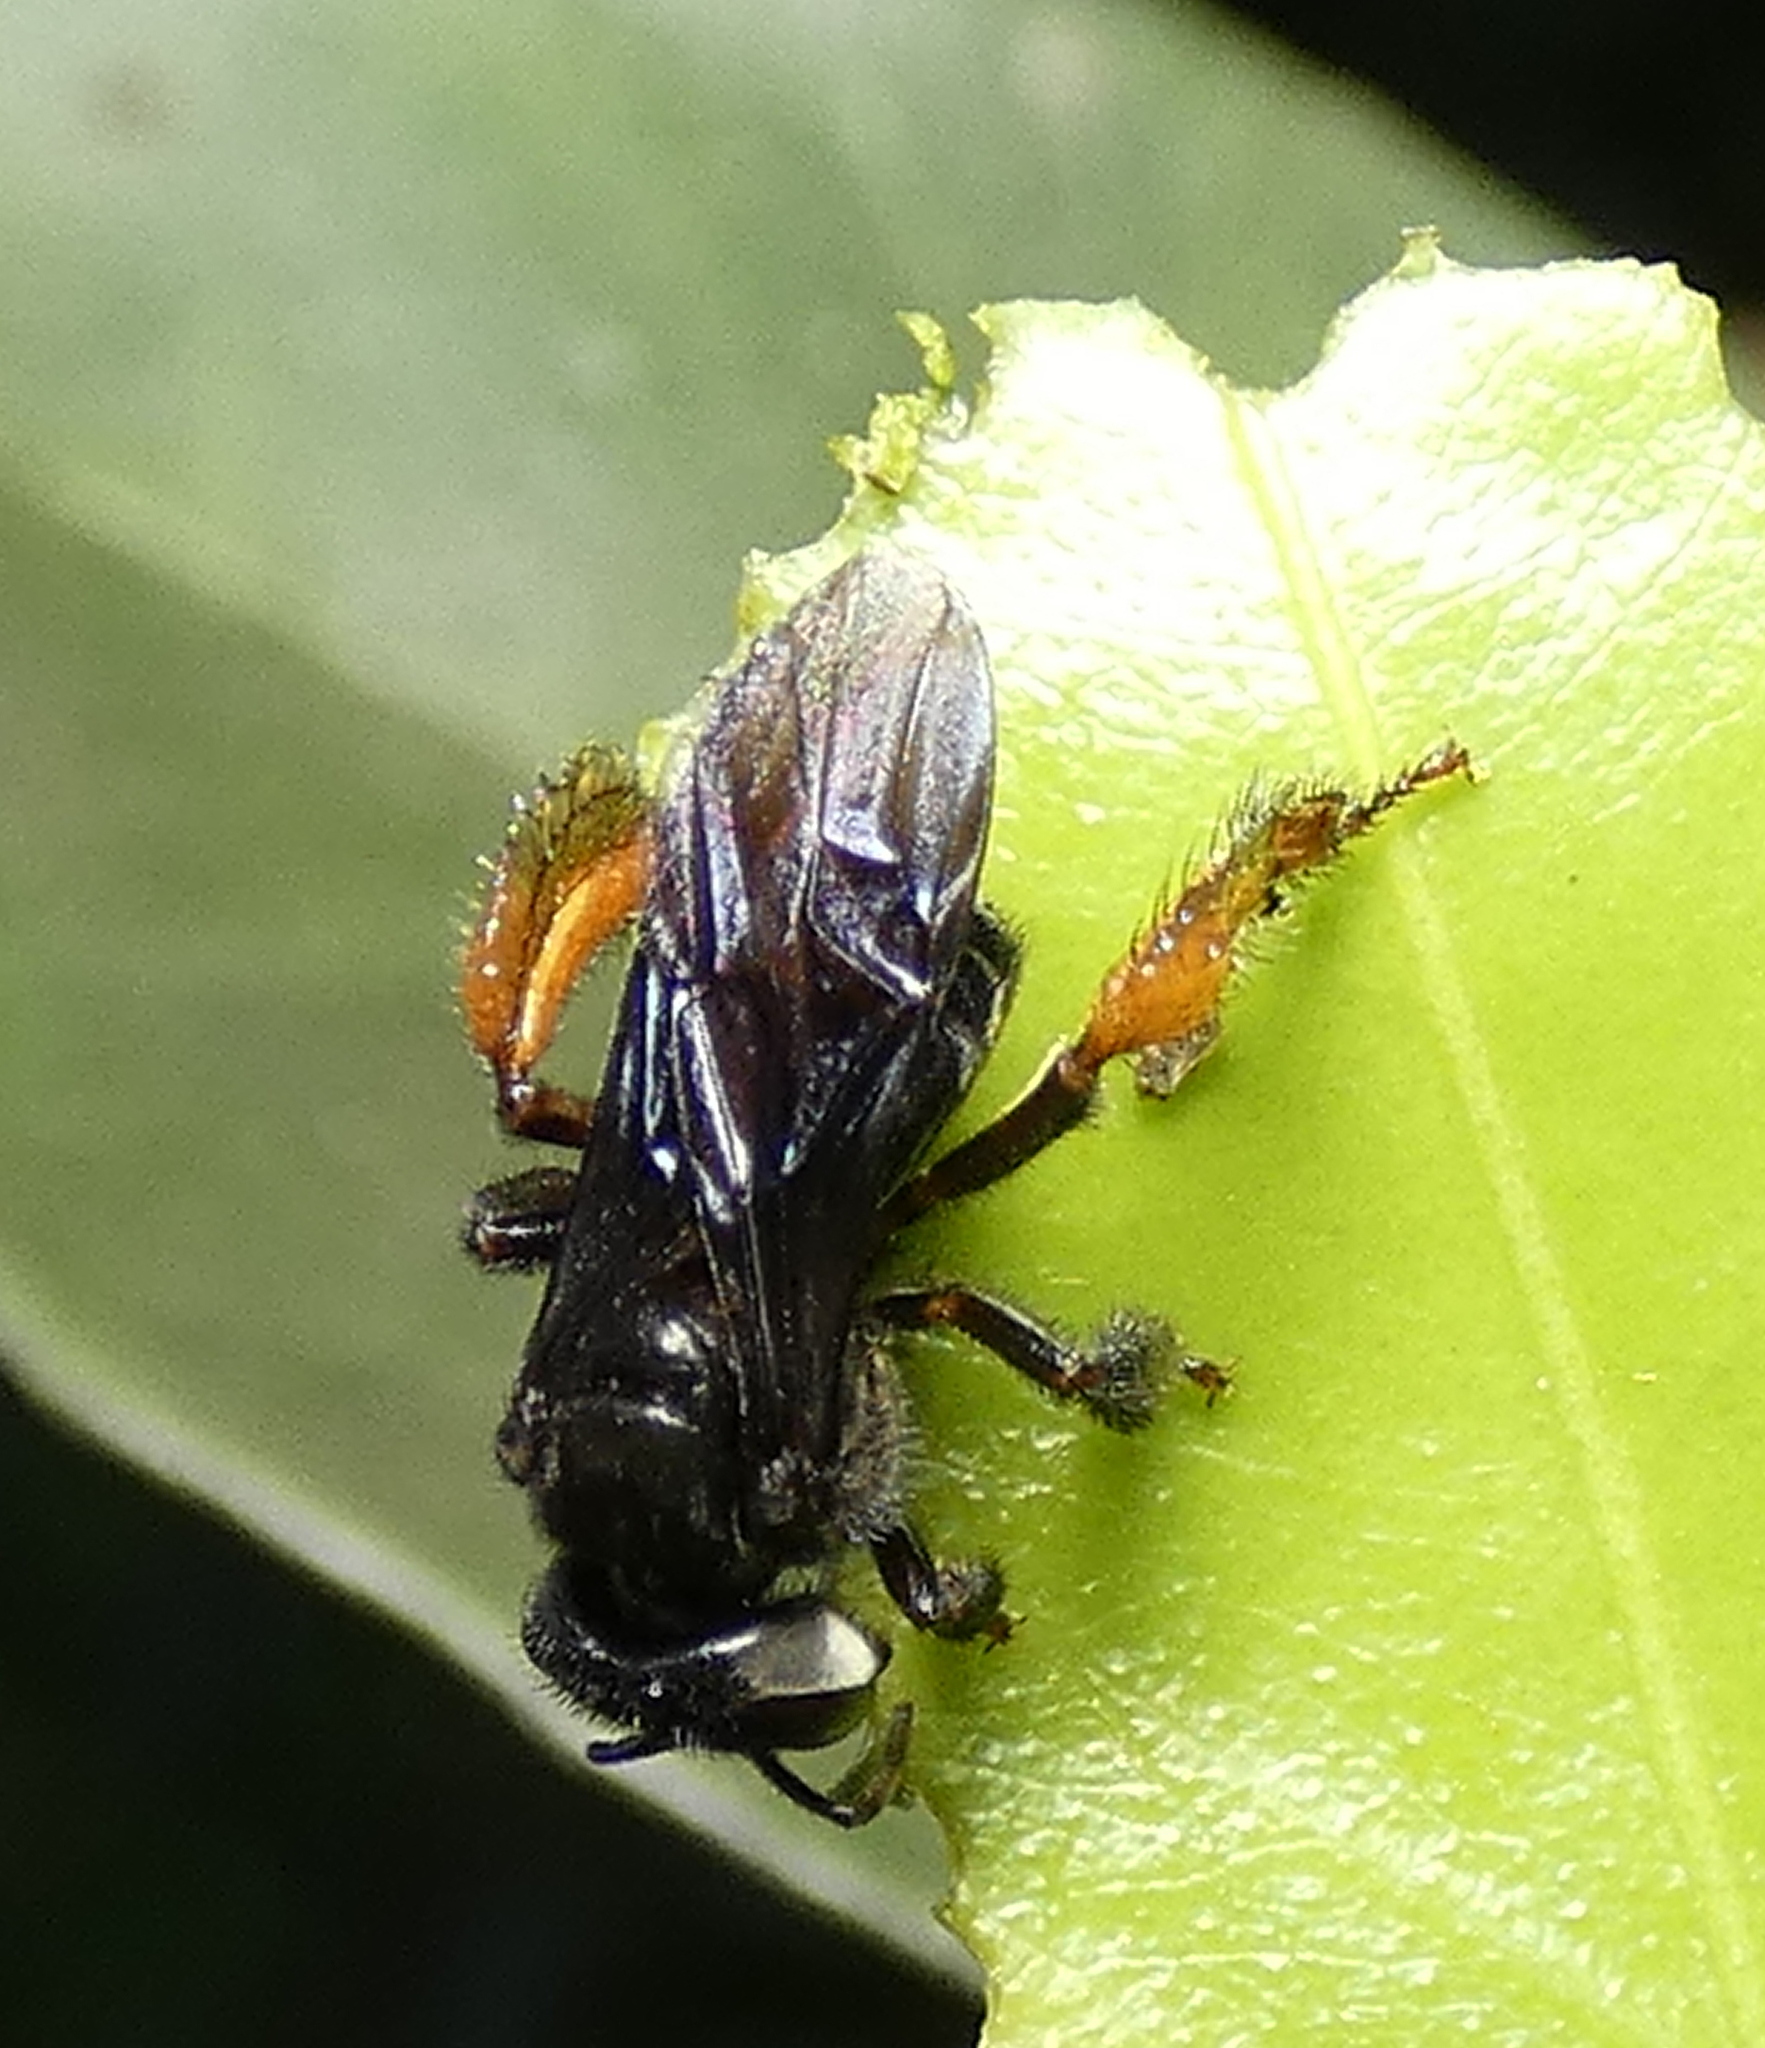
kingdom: Animalia
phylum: Arthropoda
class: Insecta
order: Hymenoptera
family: Apidae
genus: Trigona
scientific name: Trigona spinipes
